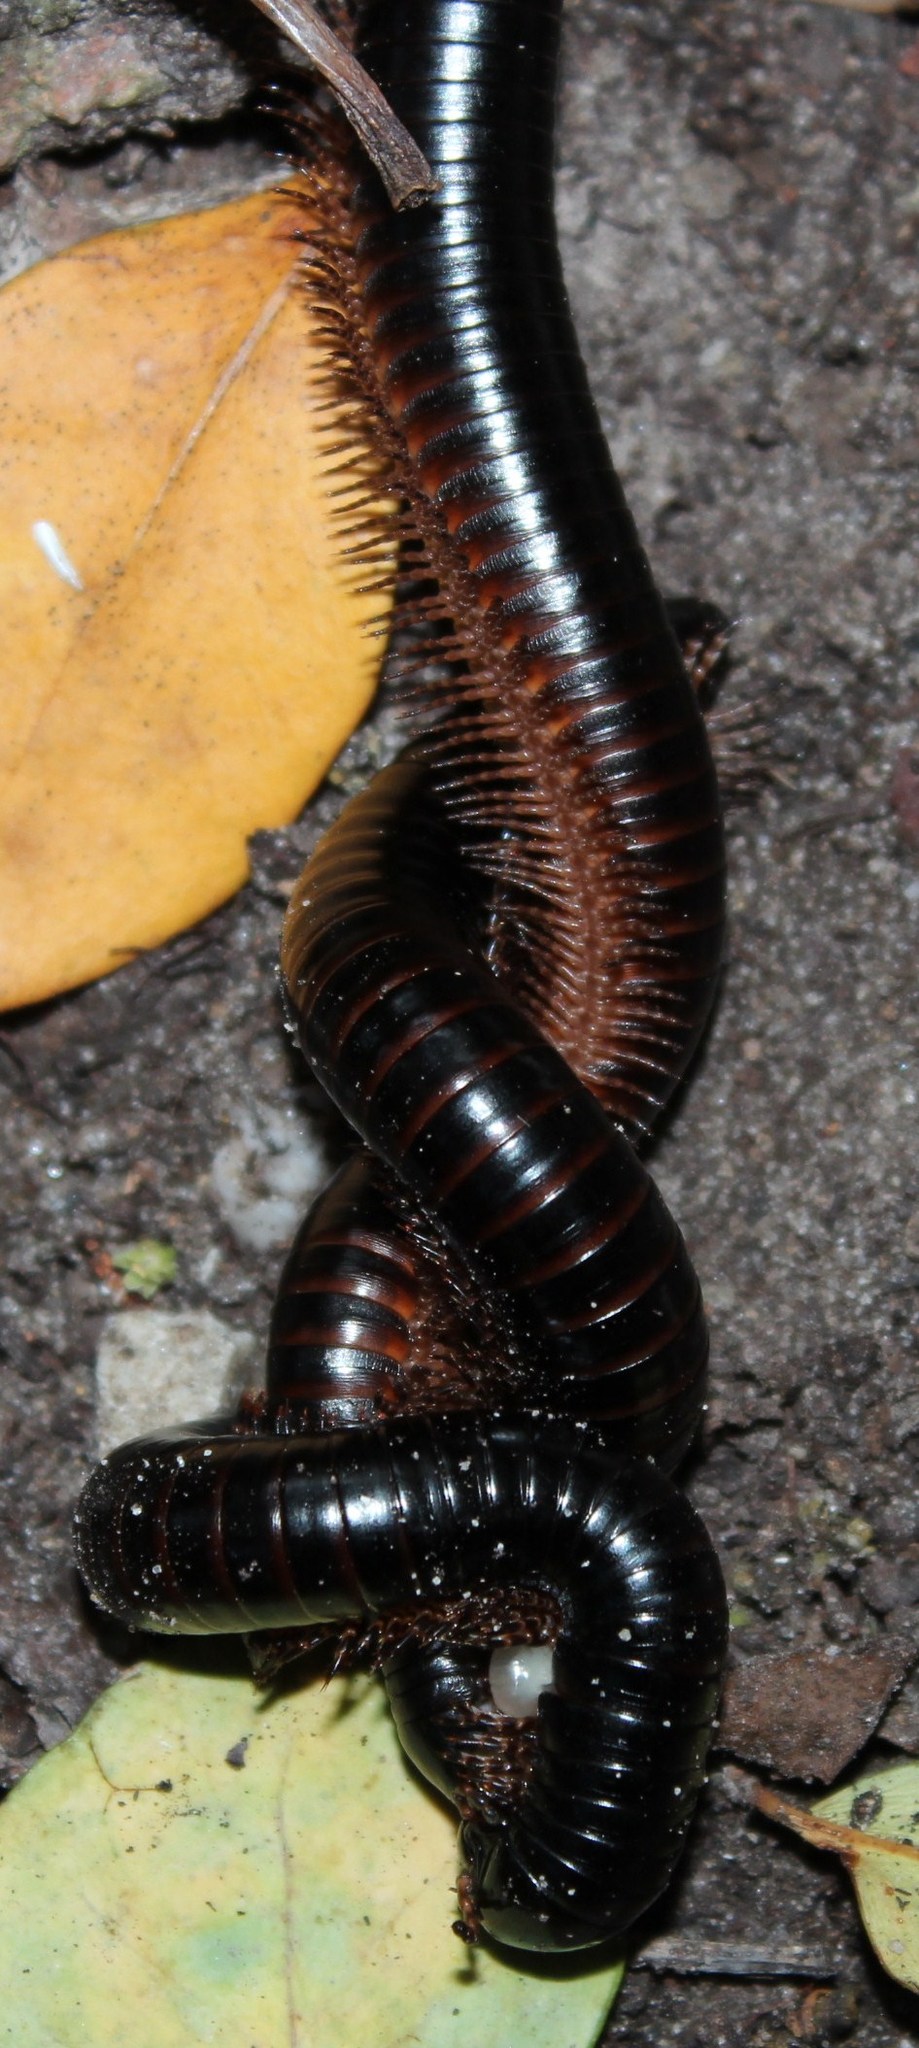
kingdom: Animalia
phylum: Arthropoda
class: Diplopoda
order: Spirostreptida
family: Spirostreptidae
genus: Doratogonus
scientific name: Doratogonus annulipes
